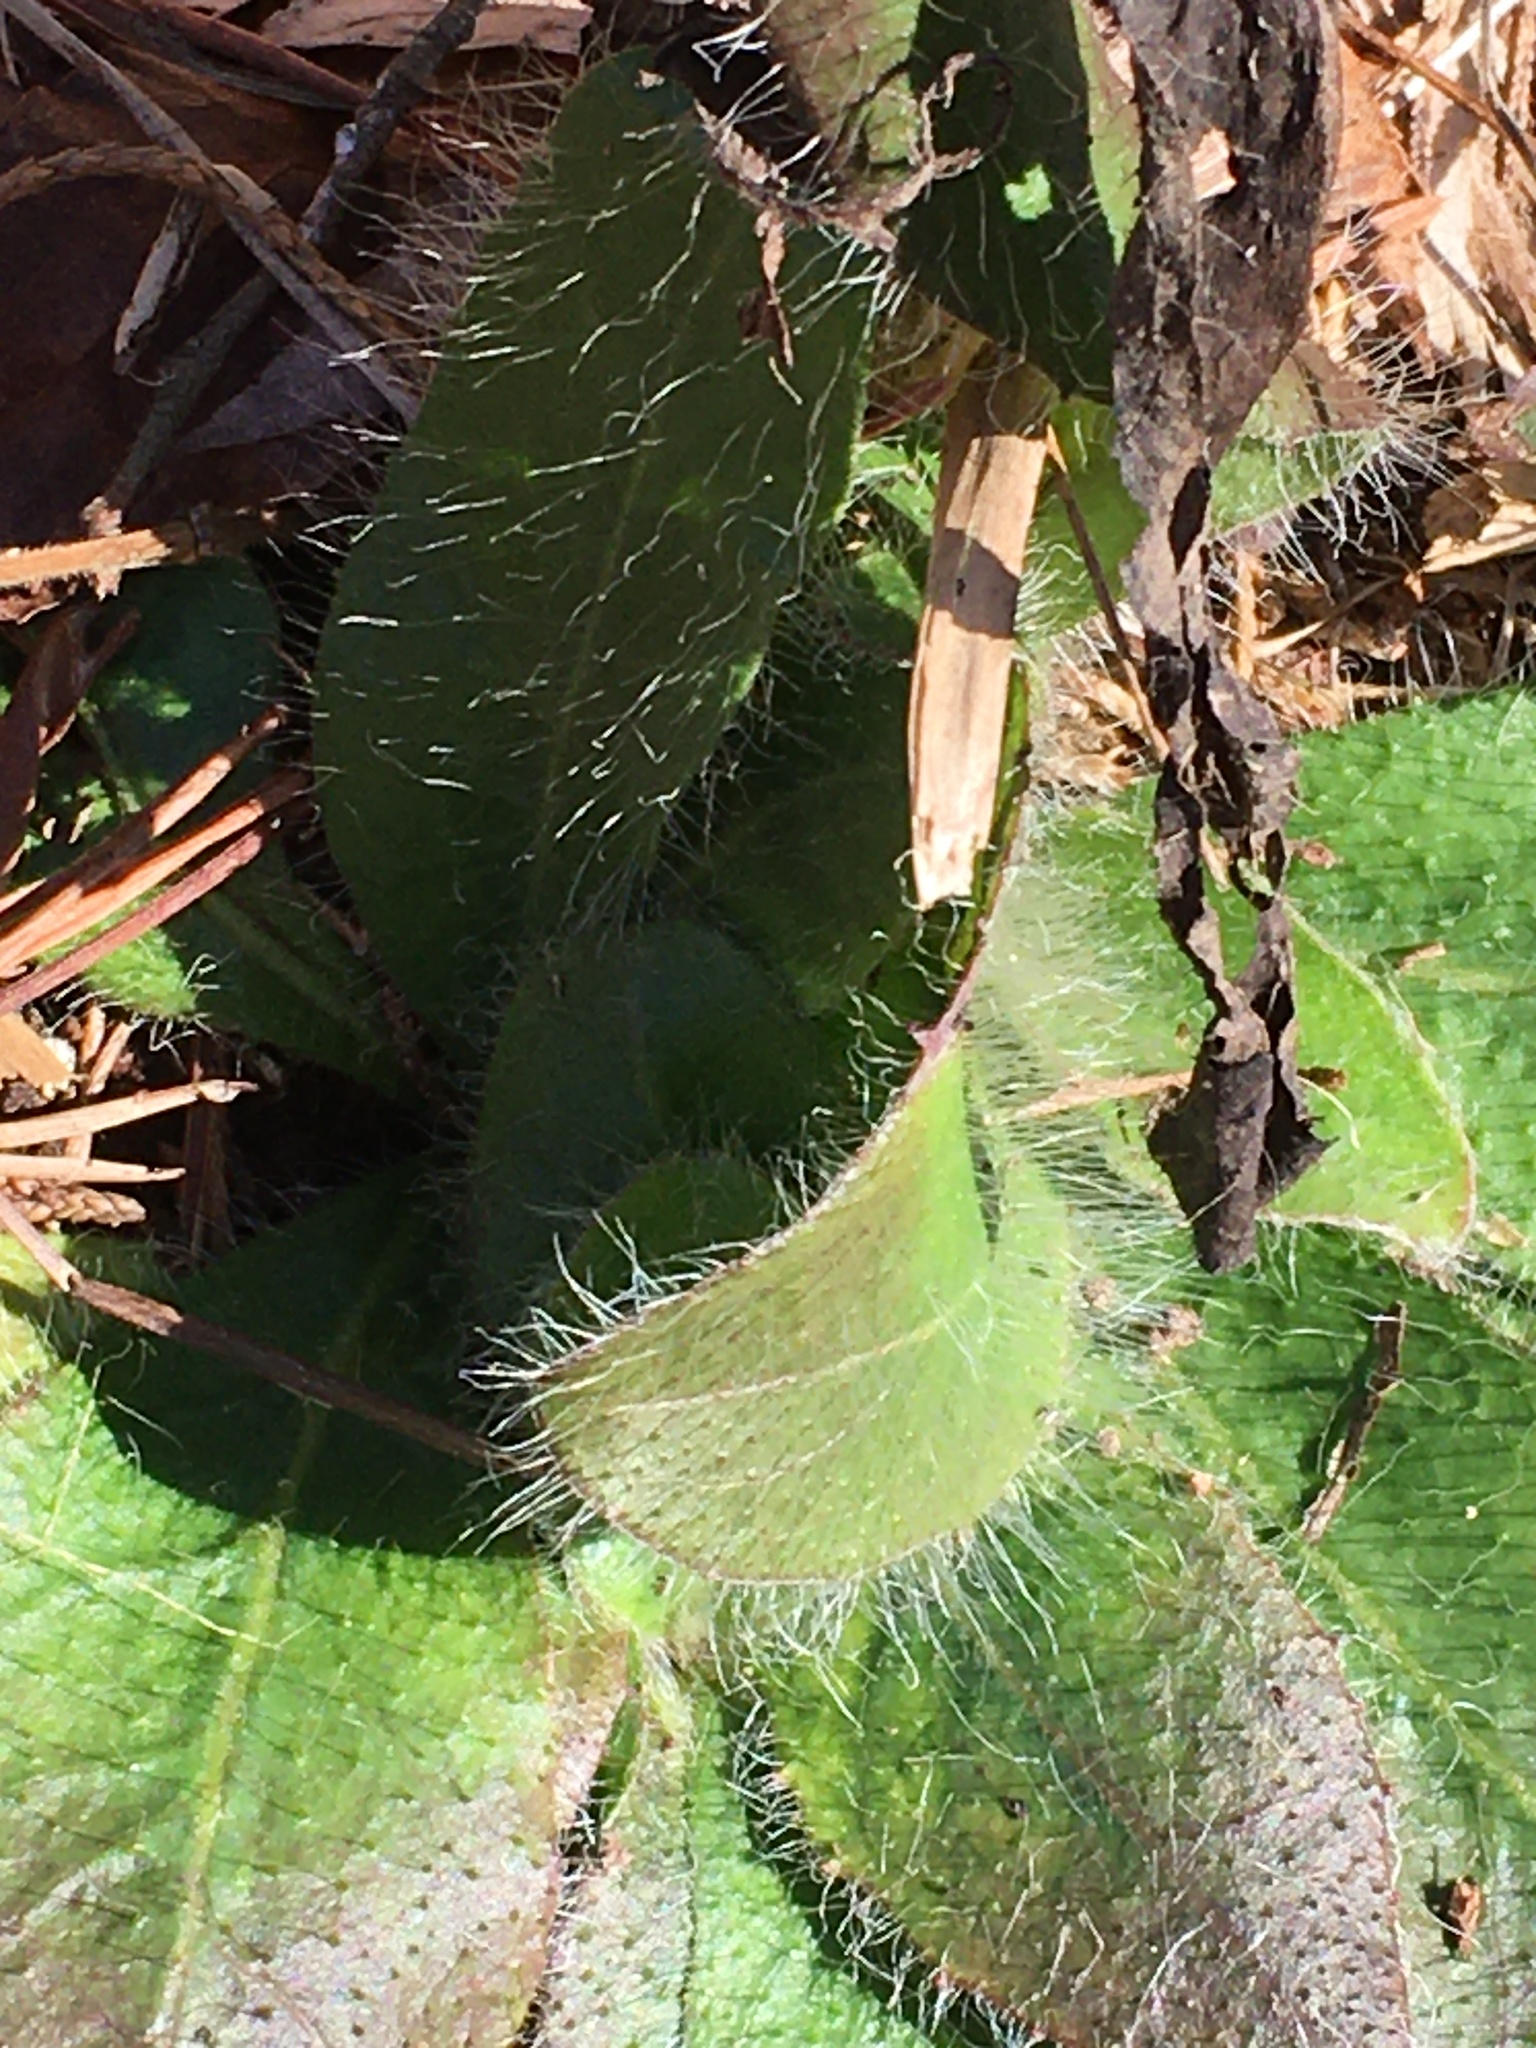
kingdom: Plantae
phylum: Tracheophyta
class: Magnoliopsida
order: Asterales
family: Asteraceae
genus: Hieracium
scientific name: Hieracium gronovii
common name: Beaked hawkweed
